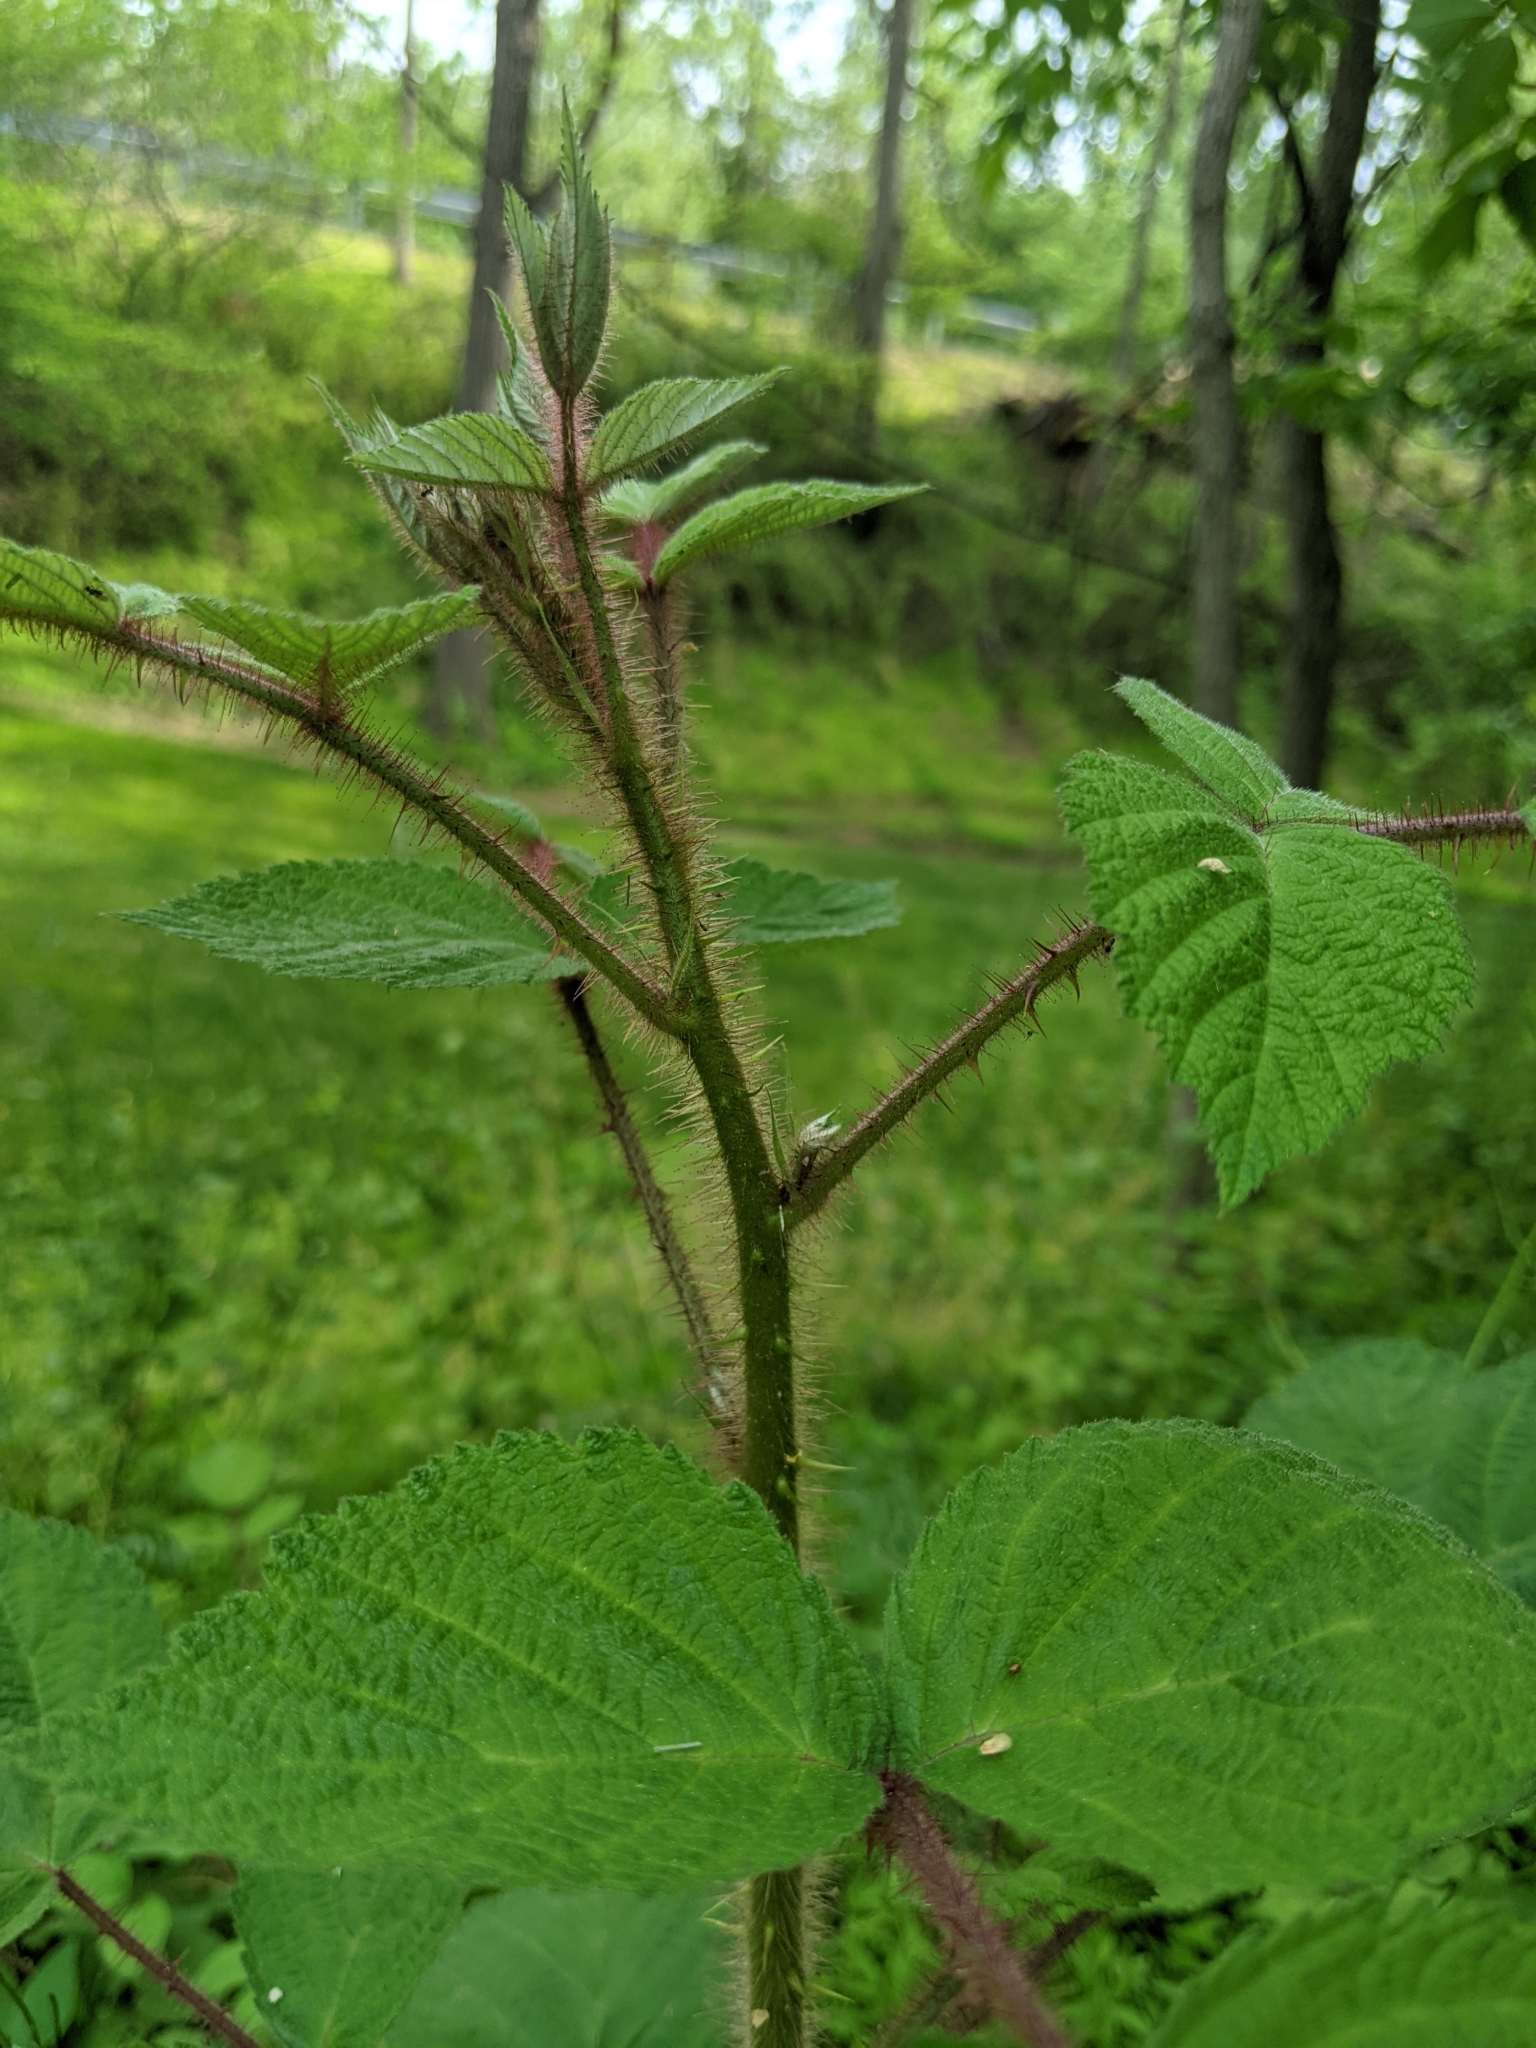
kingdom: Plantae
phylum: Tracheophyta
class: Magnoliopsida
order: Rosales
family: Rosaceae
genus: Rubus
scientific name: Rubus phoenicolasius
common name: Japanese wineberry
